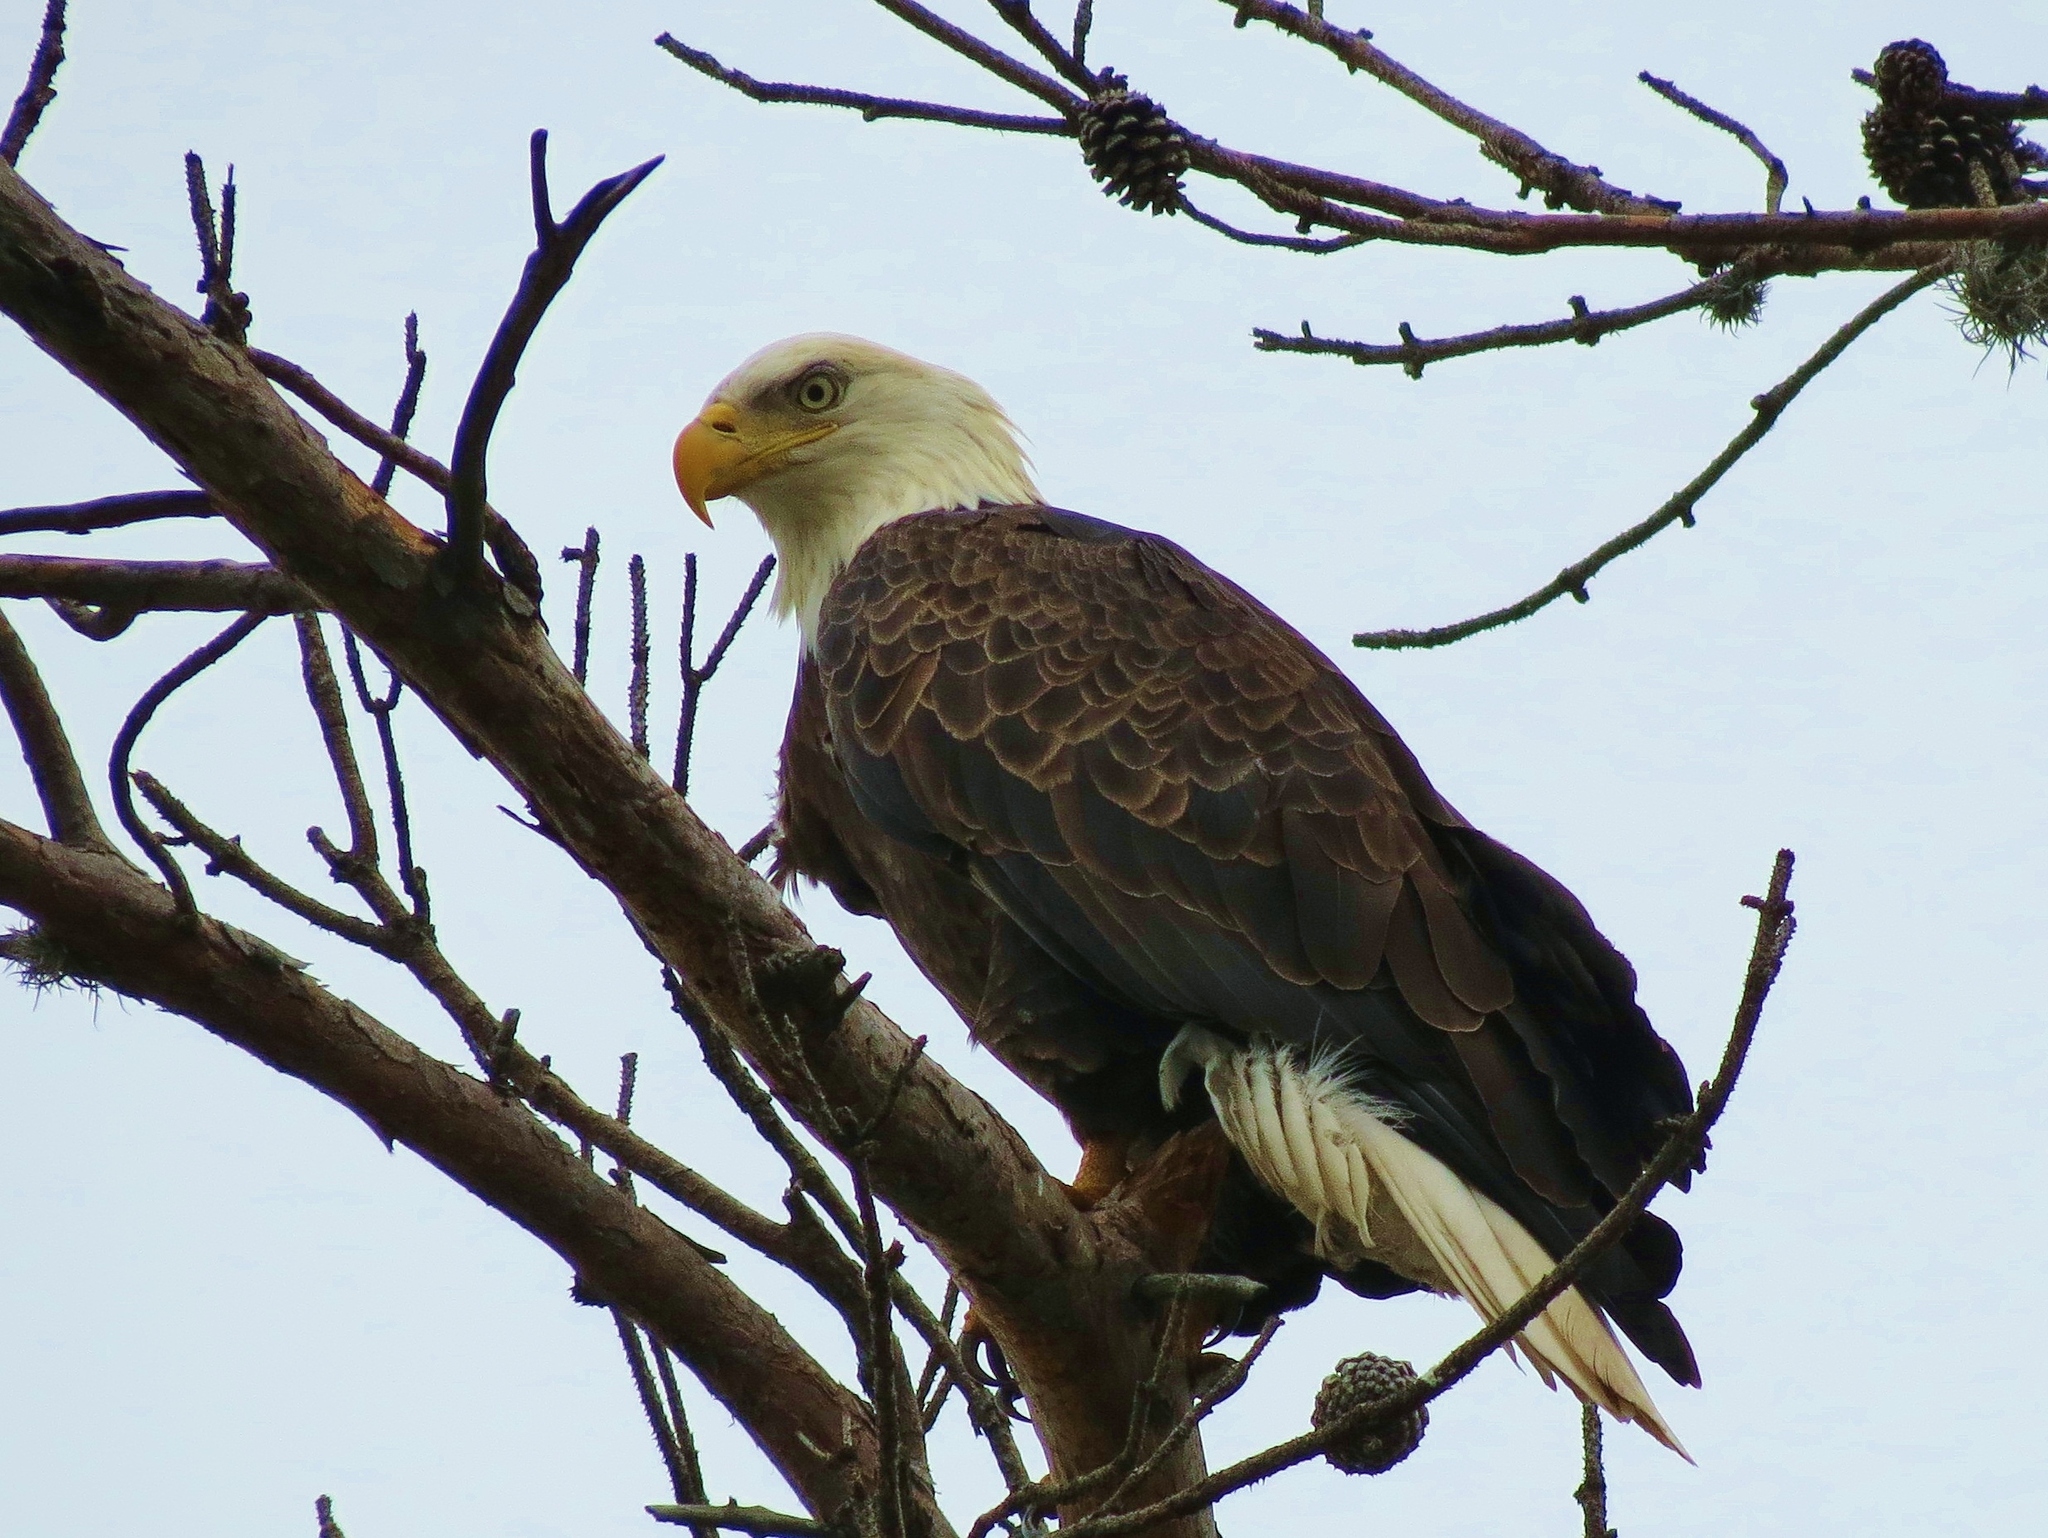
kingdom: Animalia
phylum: Chordata
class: Aves
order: Accipitriformes
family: Accipitridae
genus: Haliaeetus
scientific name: Haliaeetus leucocephalus
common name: Bald eagle
